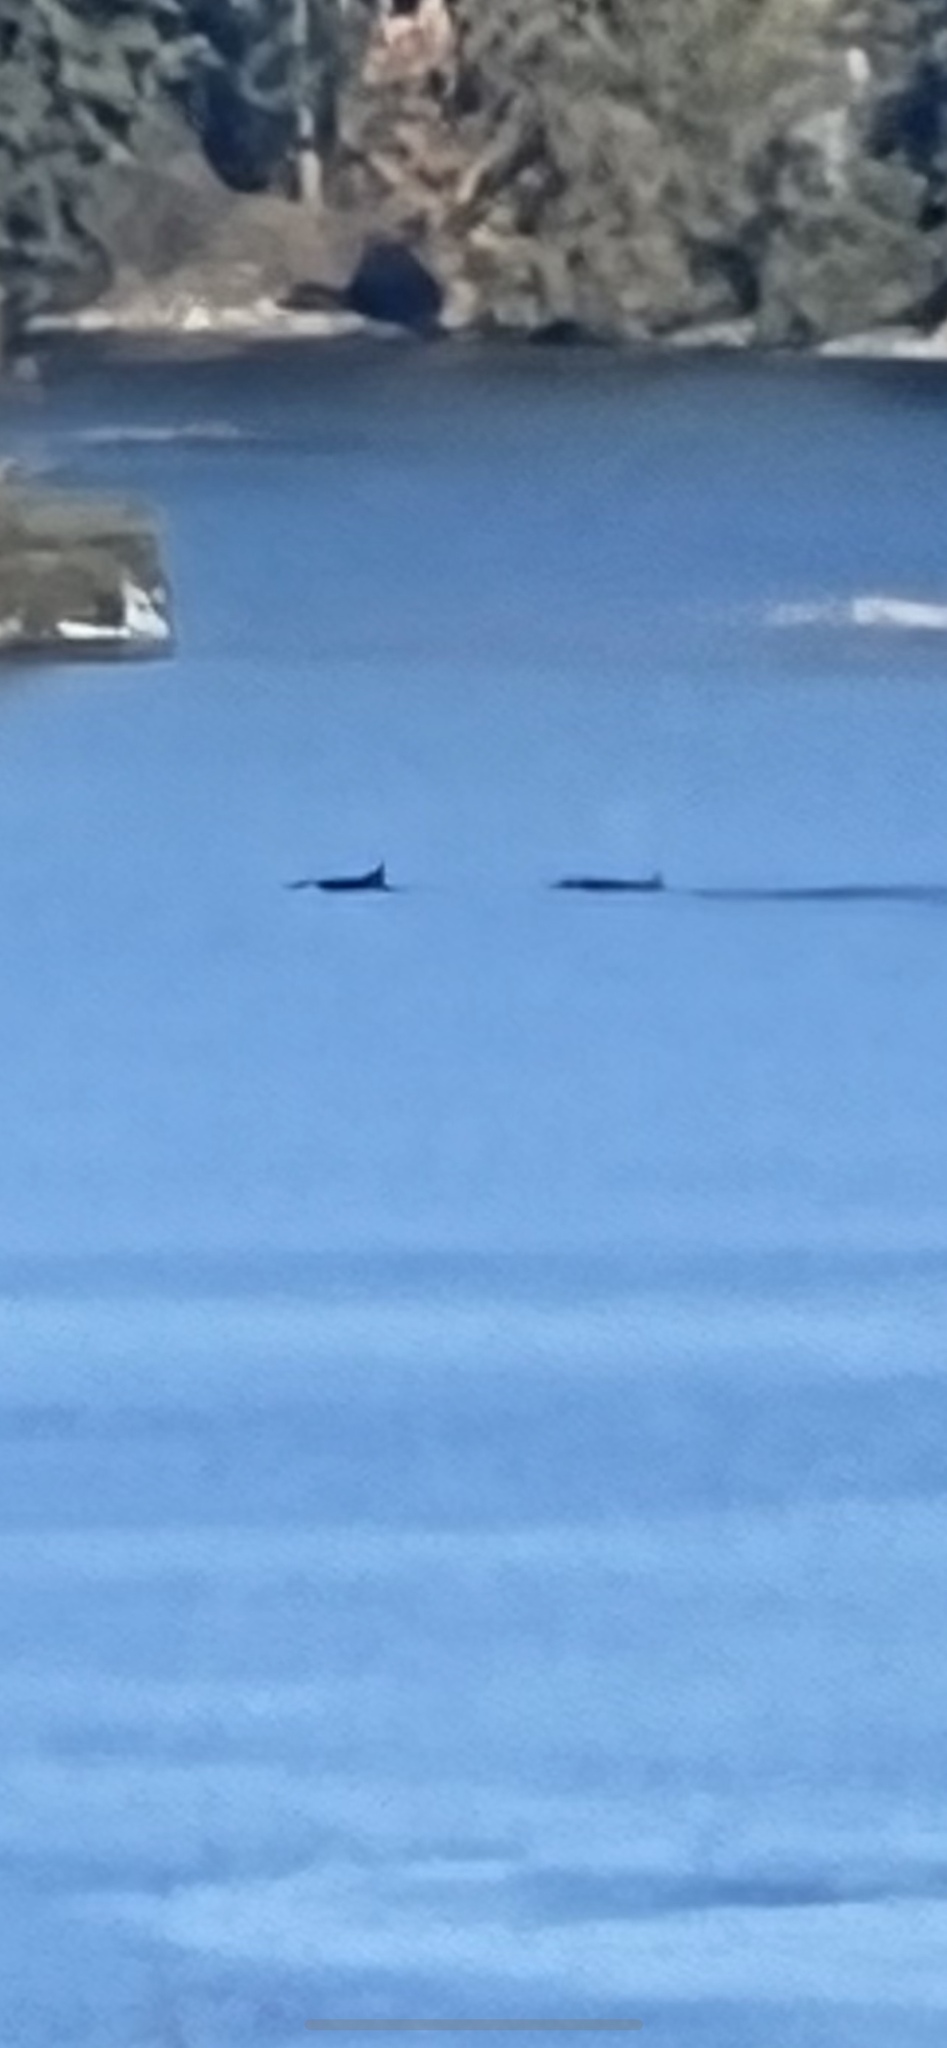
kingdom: Animalia
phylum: Chordata
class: Mammalia
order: Cetacea
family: Delphinidae
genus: Orcinus
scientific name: Orcinus orca
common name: Killer whale
